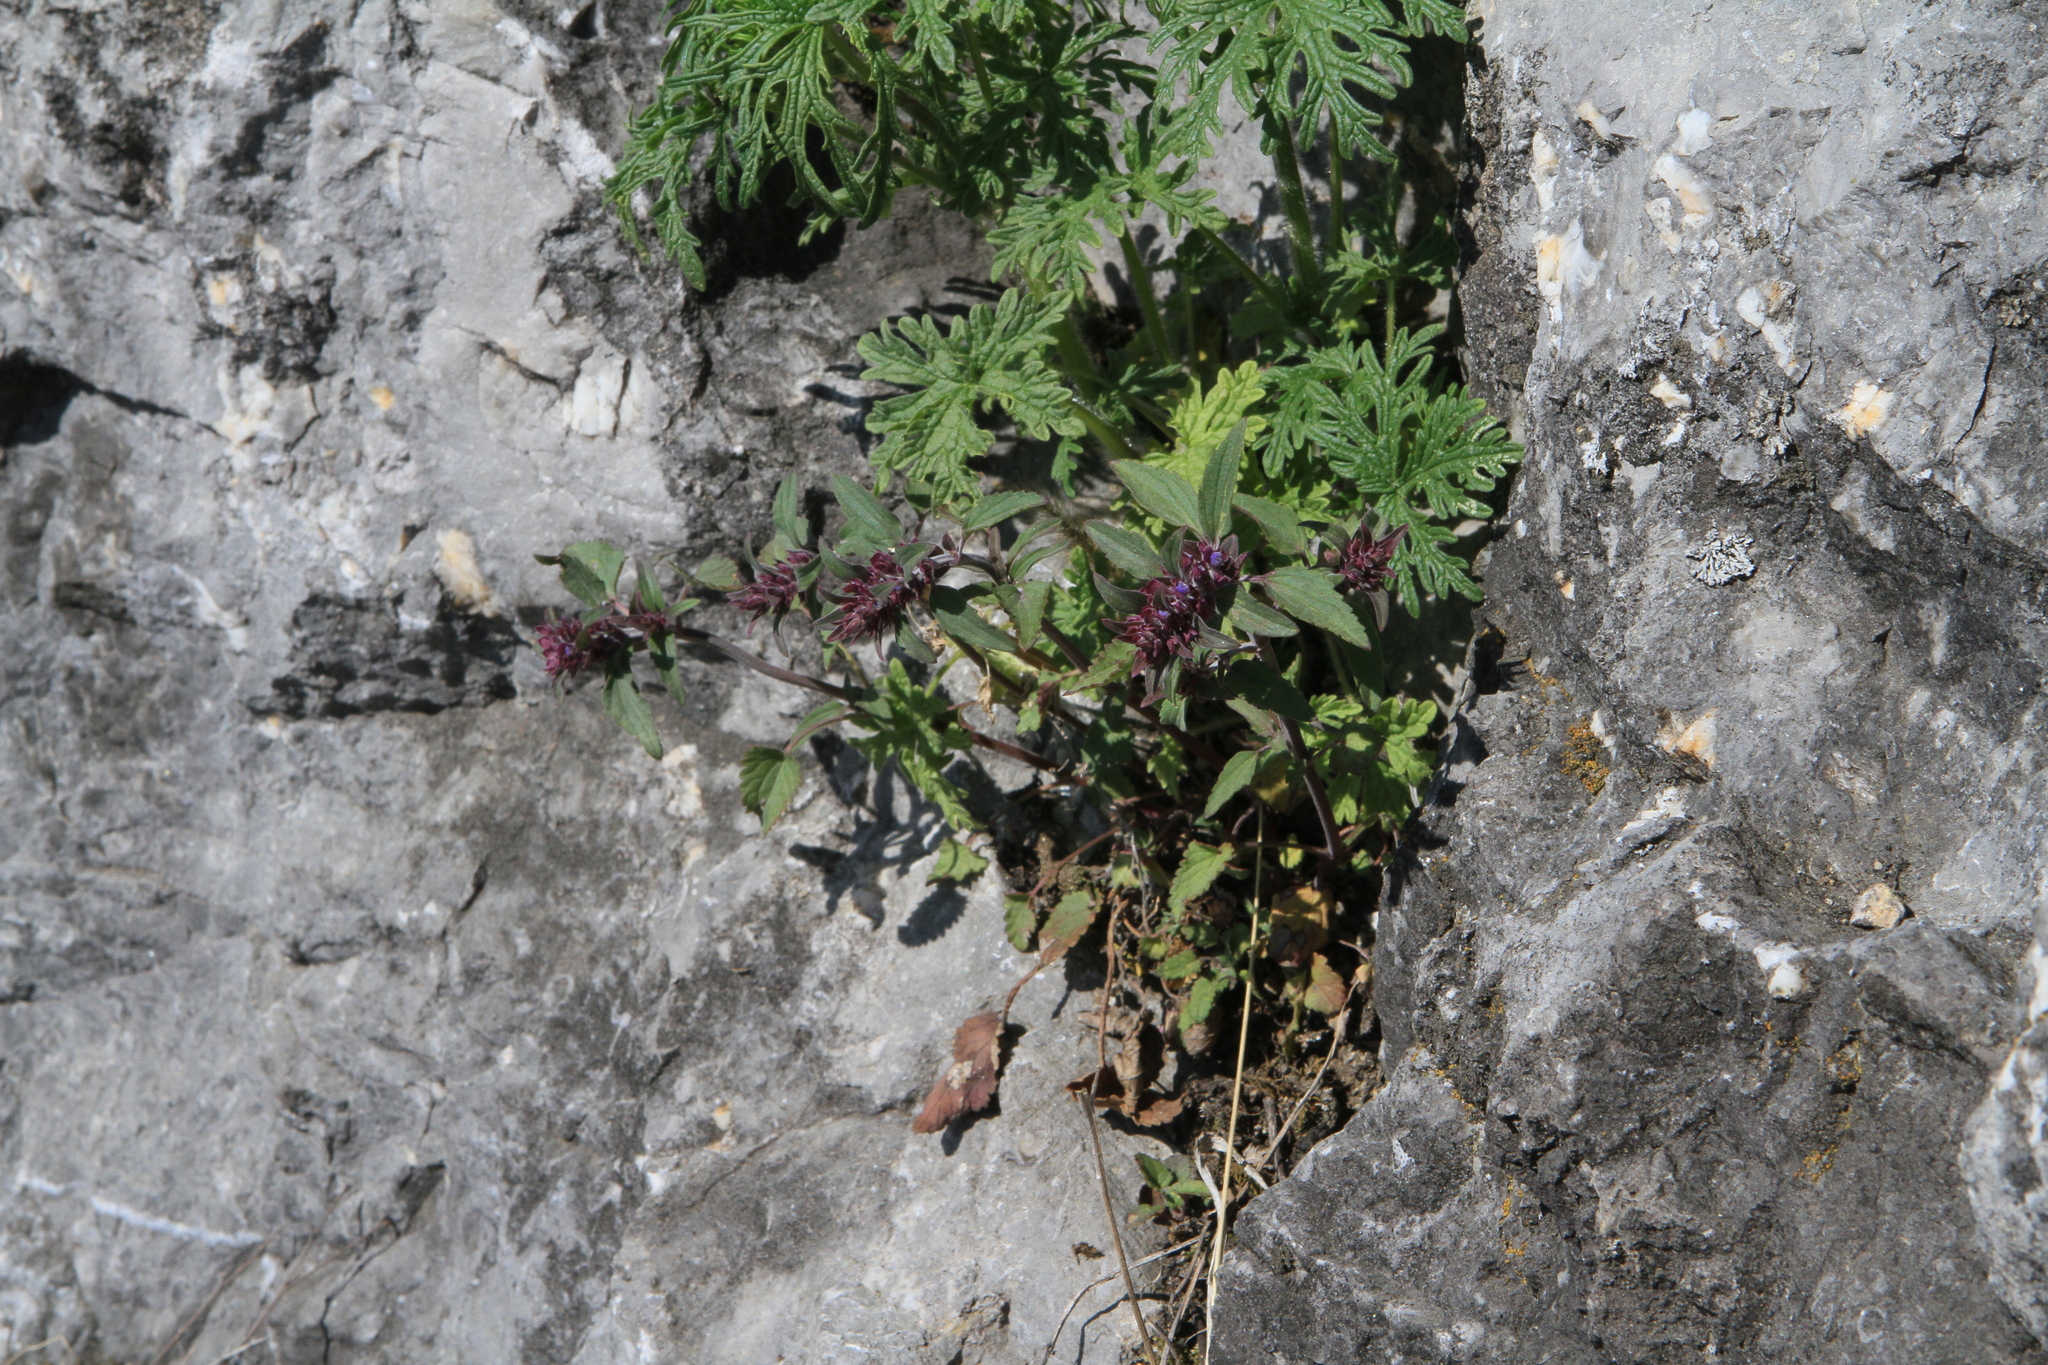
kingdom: Plantae
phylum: Tracheophyta
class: Magnoliopsida
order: Lamiales
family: Lamiaceae
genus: Dracocephalum
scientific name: Dracocephalum nutans
